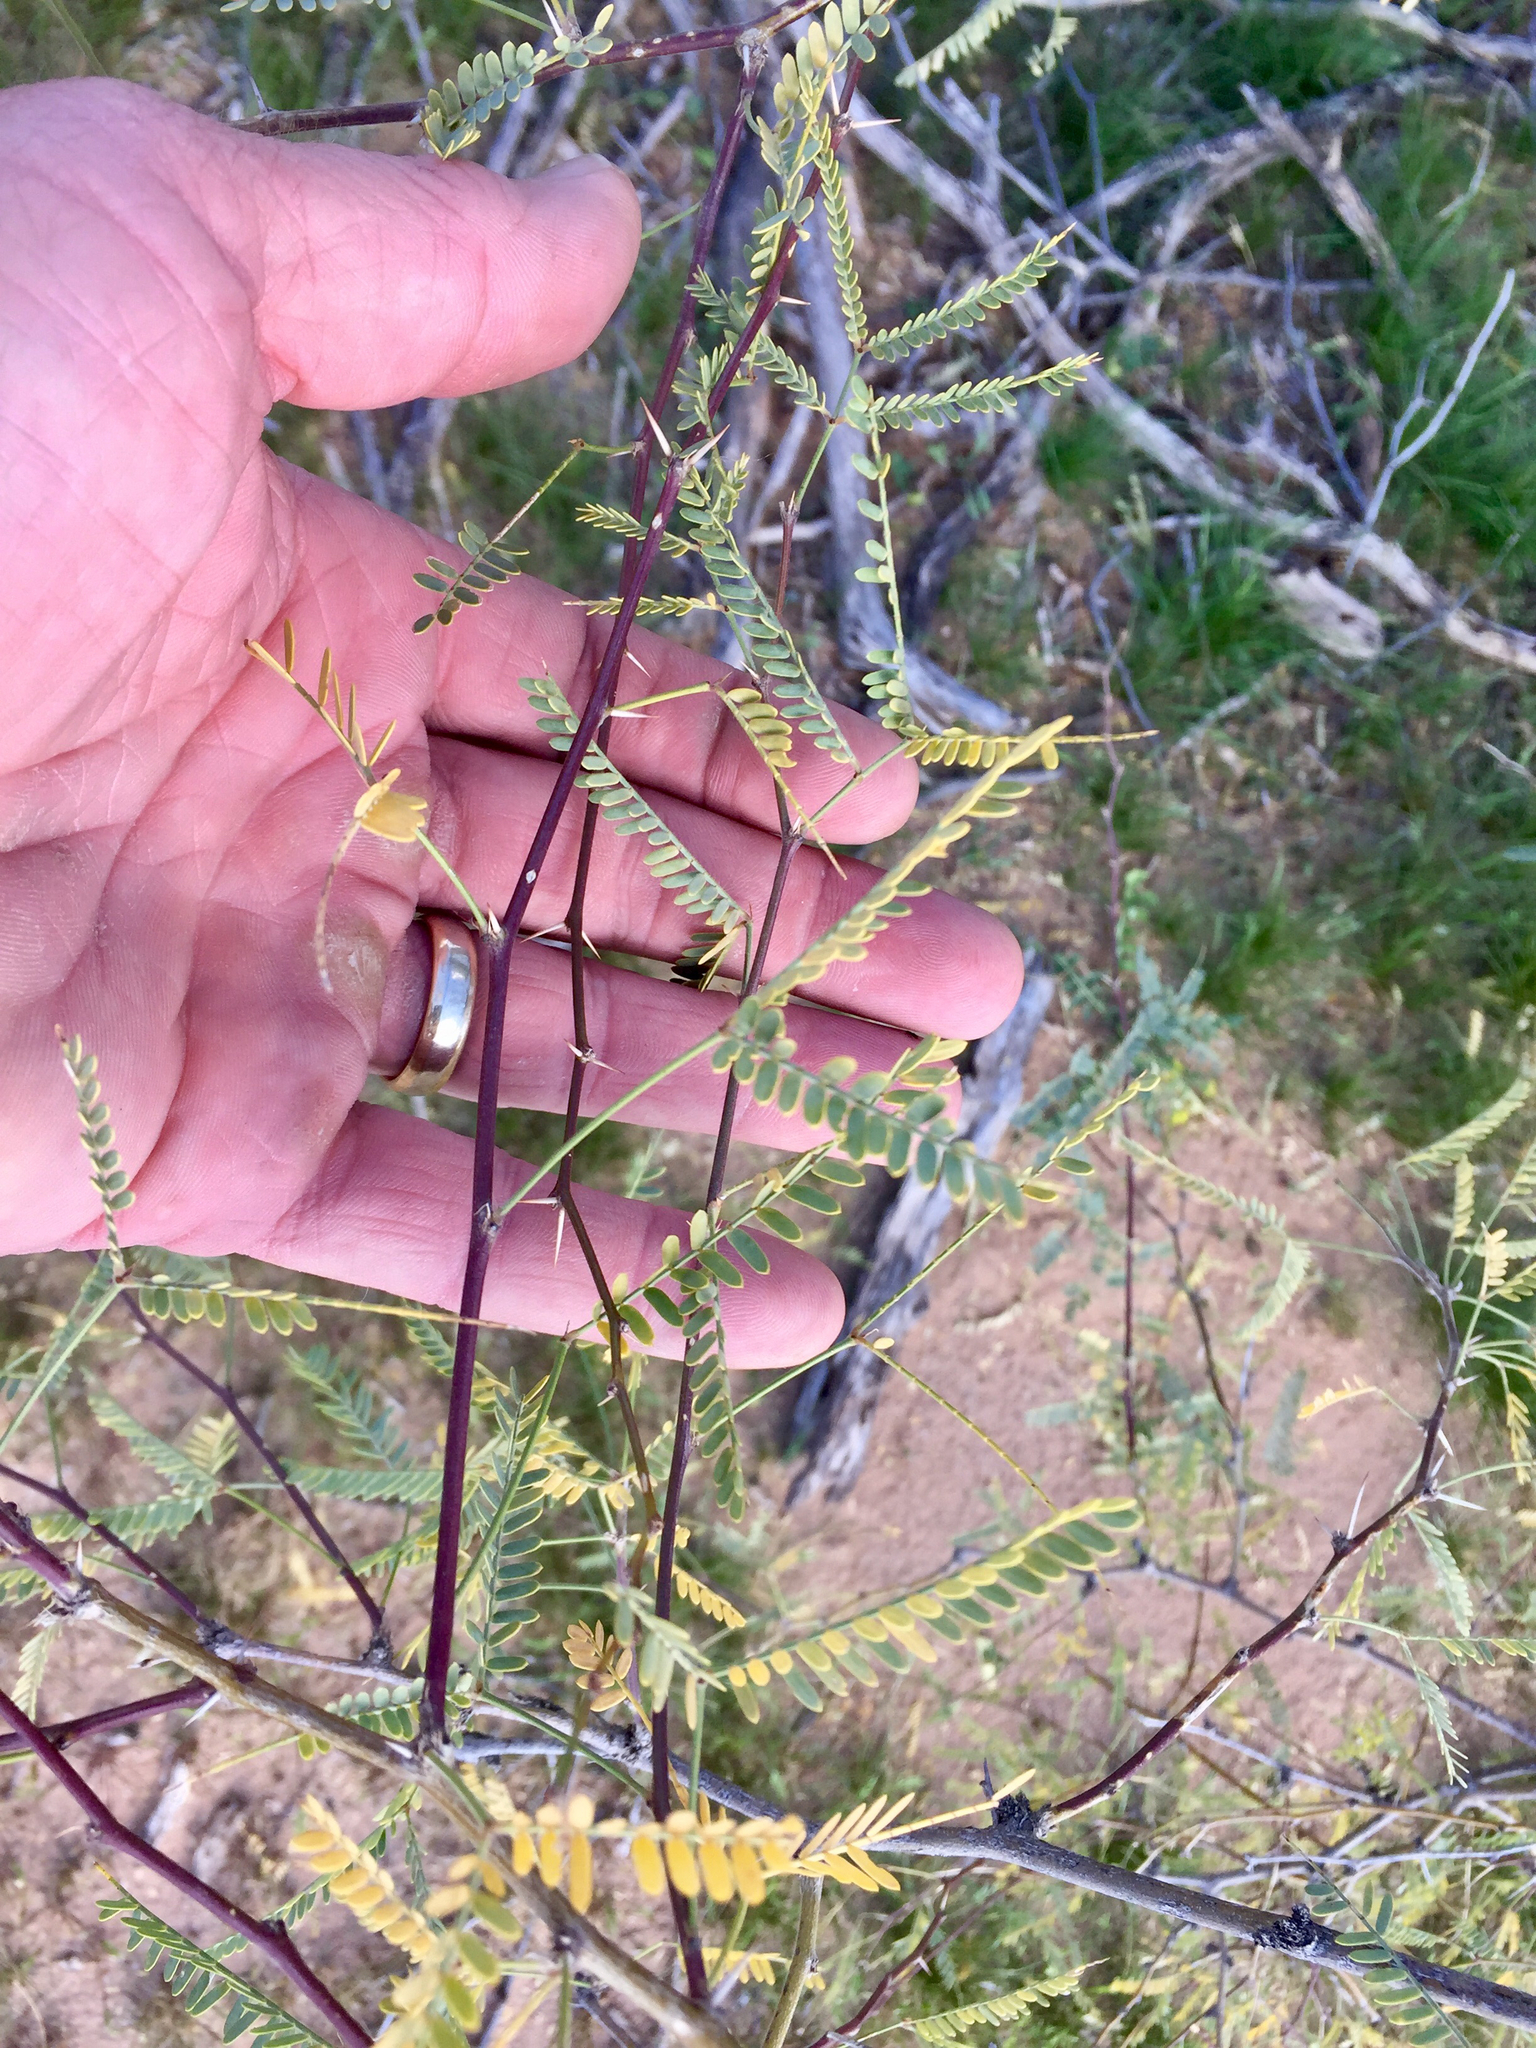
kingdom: Plantae
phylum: Tracheophyta
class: Magnoliopsida
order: Fabales
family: Fabaceae
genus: Prosopis
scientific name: Prosopis velutina
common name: Velvet mesquite
